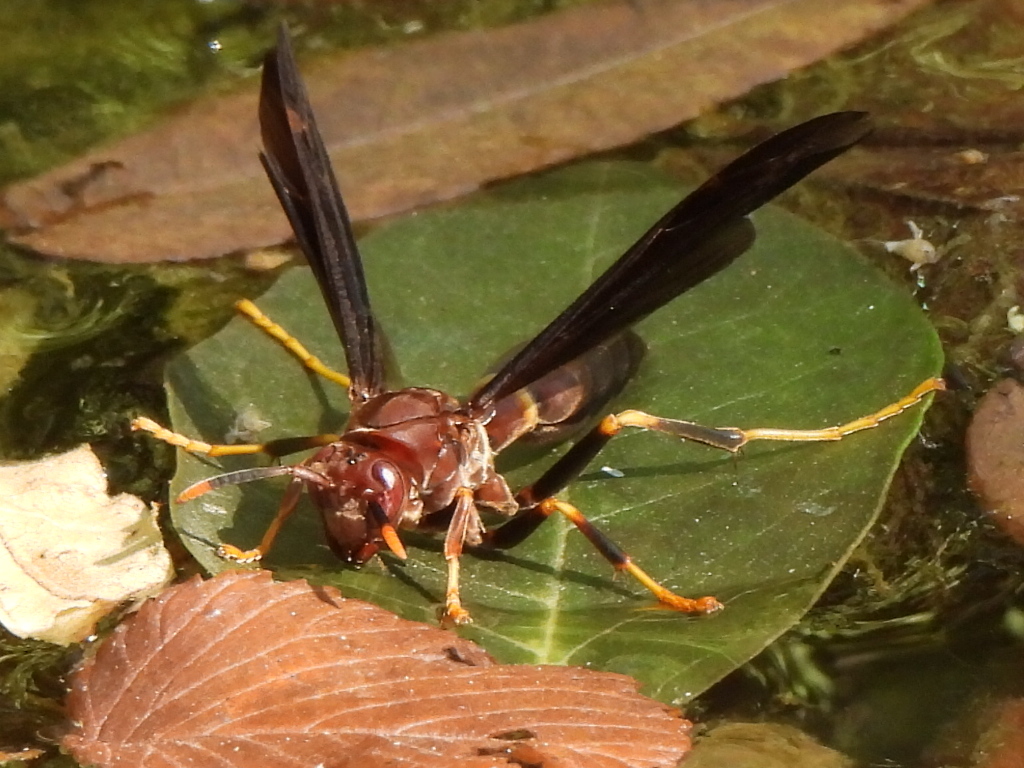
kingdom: Animalia
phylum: Arthropoda
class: Insecta
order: Hymenoptera
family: Eumenidae
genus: Polistes
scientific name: Polistes annularis
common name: Ringed paper wasp
